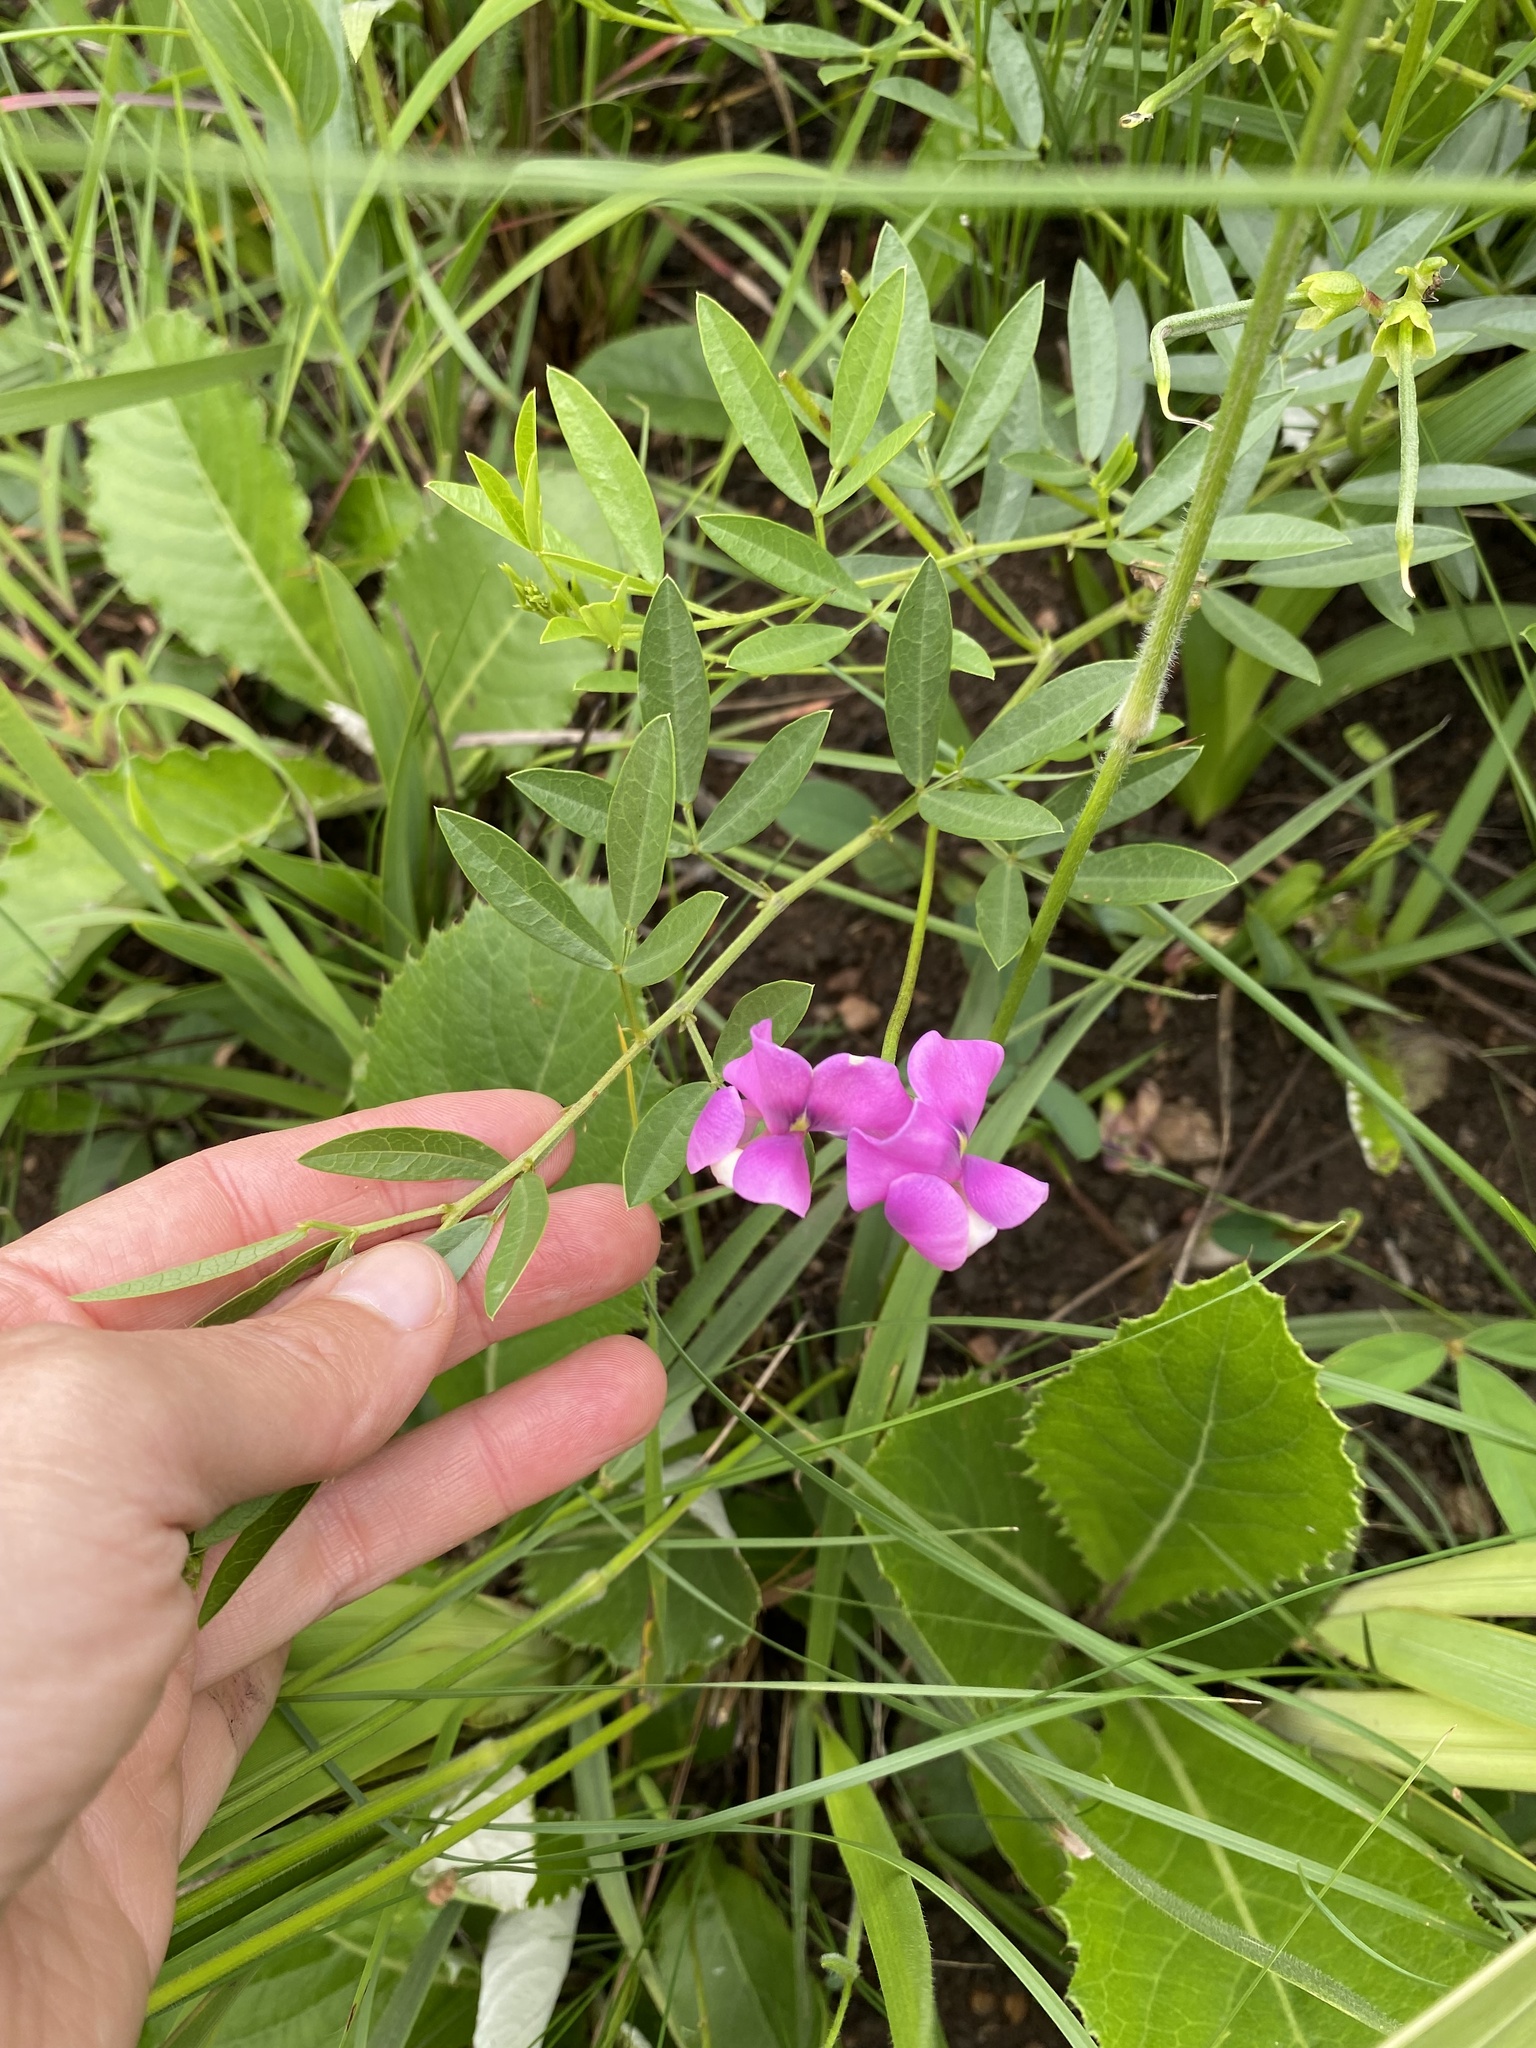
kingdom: Plantae
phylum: Tracheophyta
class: Magnoliopsida
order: Fabales
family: Fabaceae
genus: Sphenostylis
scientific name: Sphenostylis marginata
